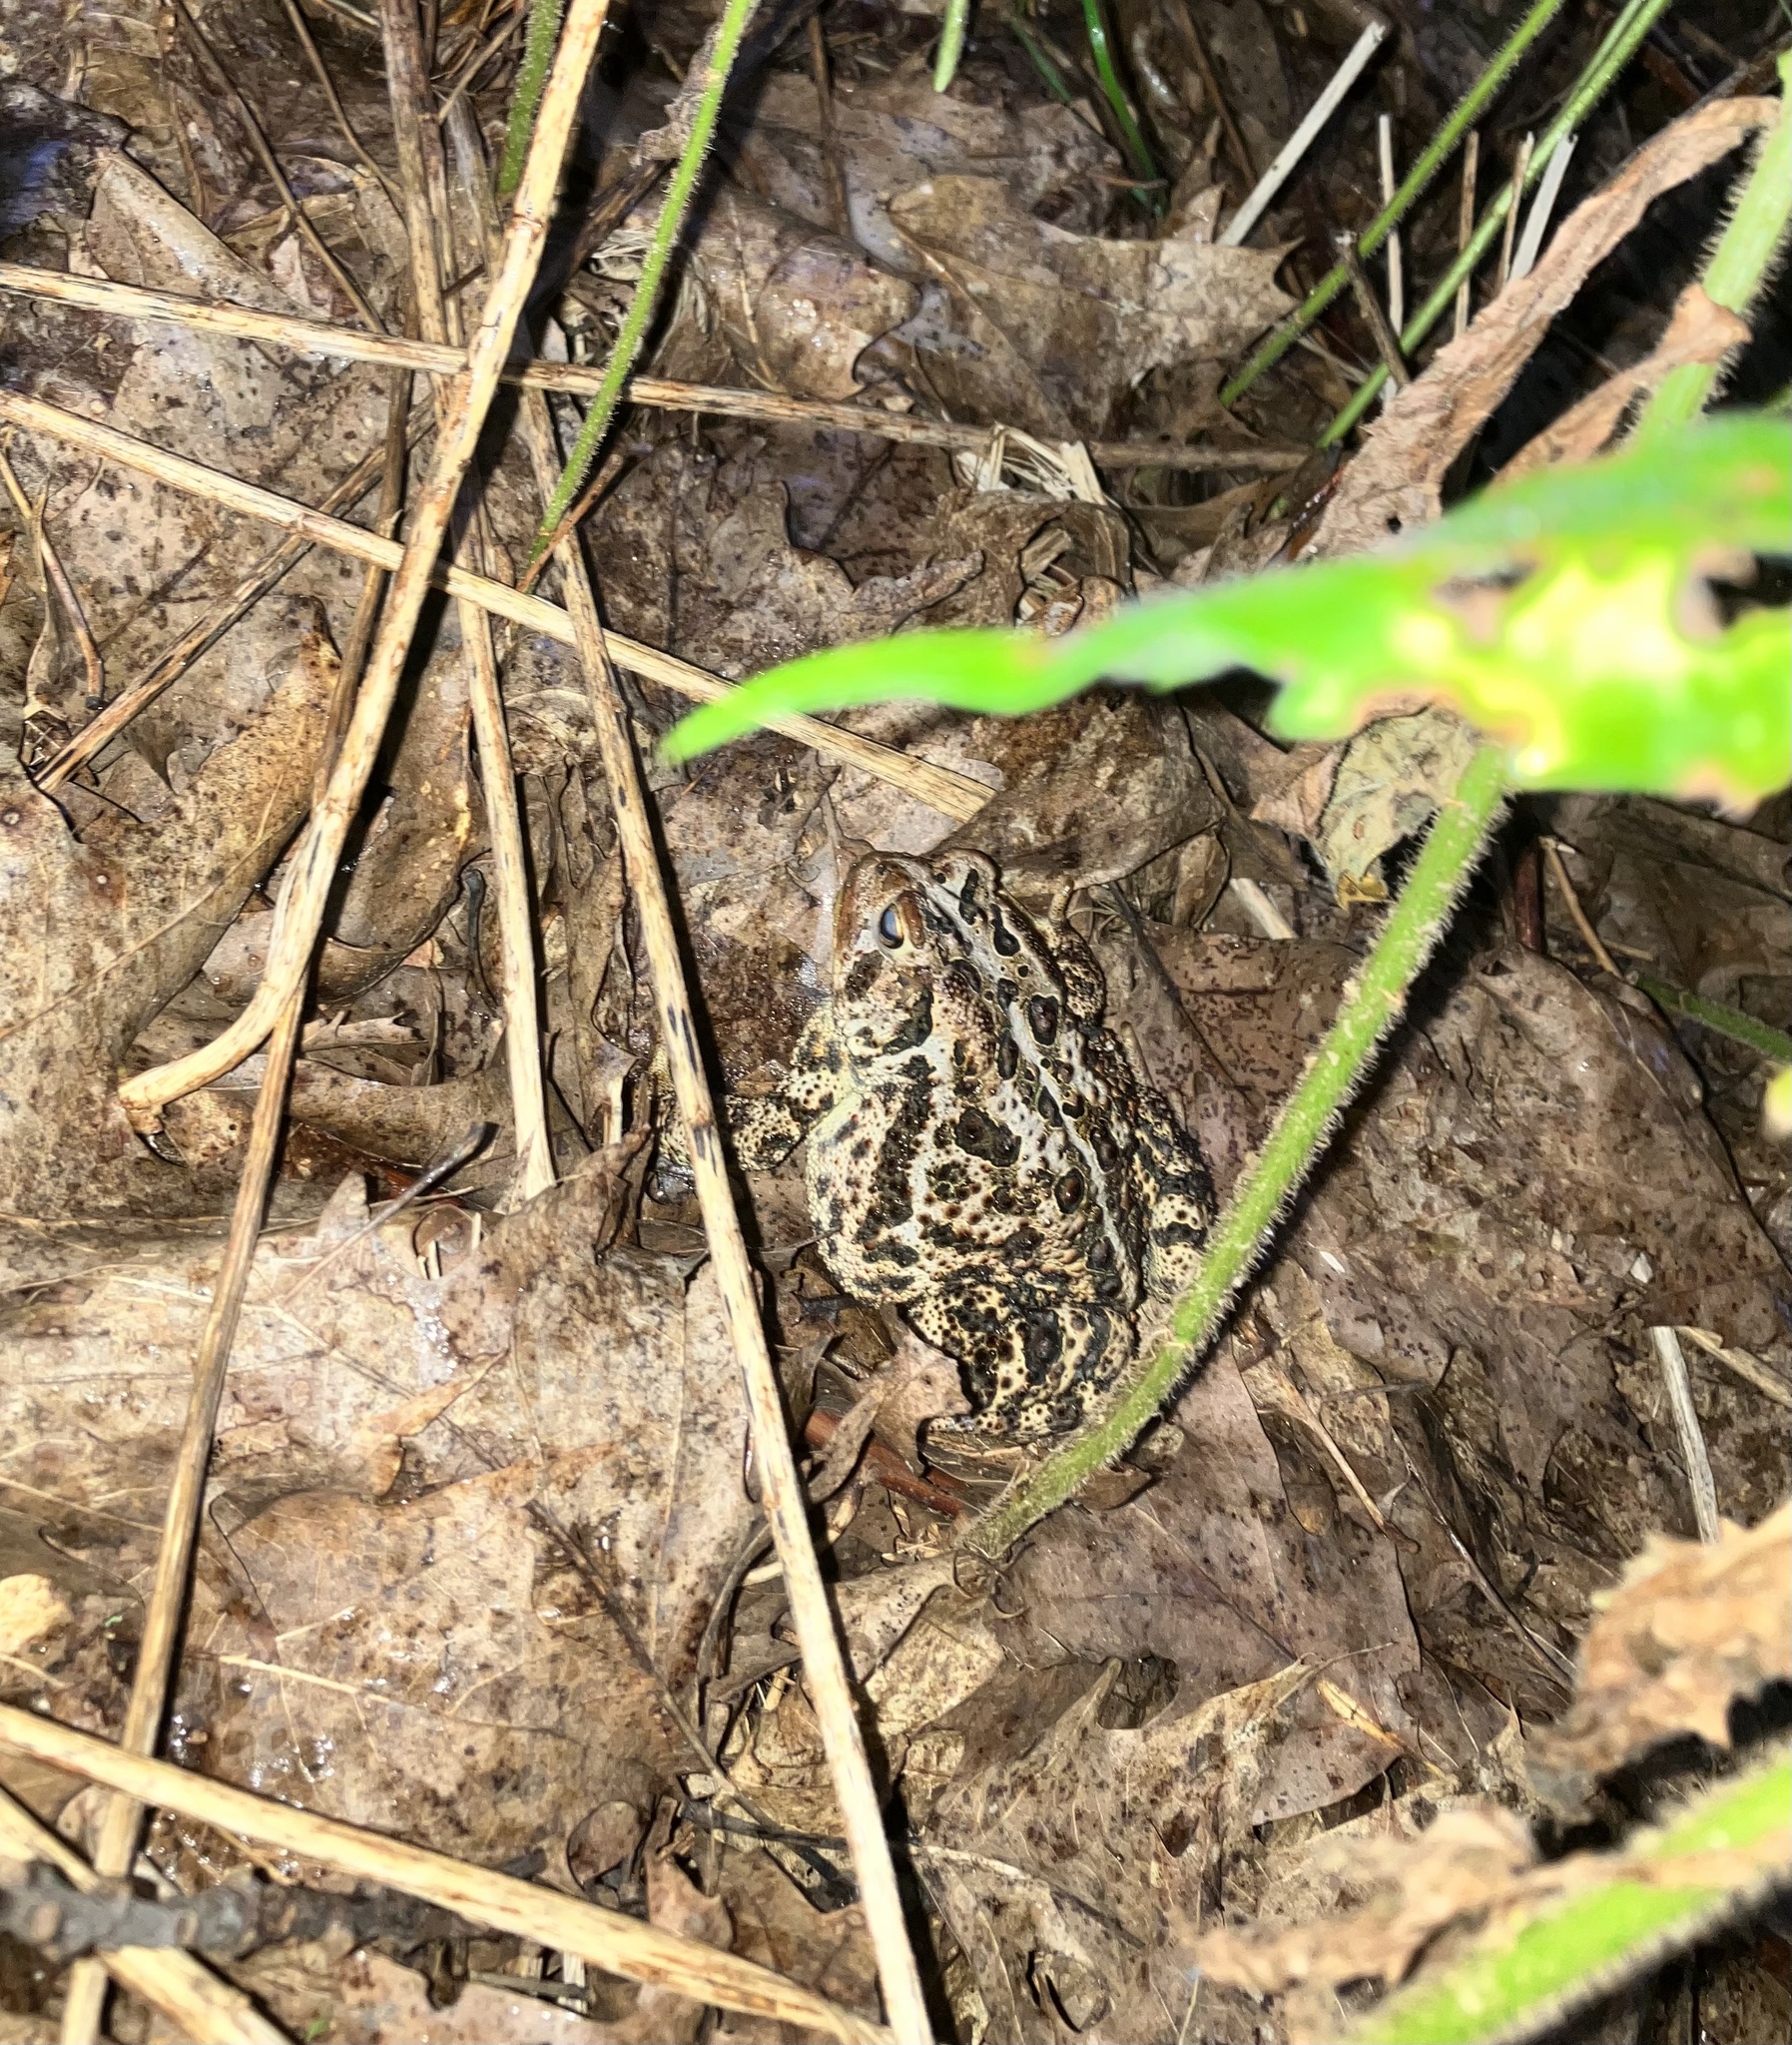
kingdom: Animalia
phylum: Chordata
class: Amphibia
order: Anura
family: Bufonidae
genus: Anaxyrus
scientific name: Anaxyrus americanus
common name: American toad
